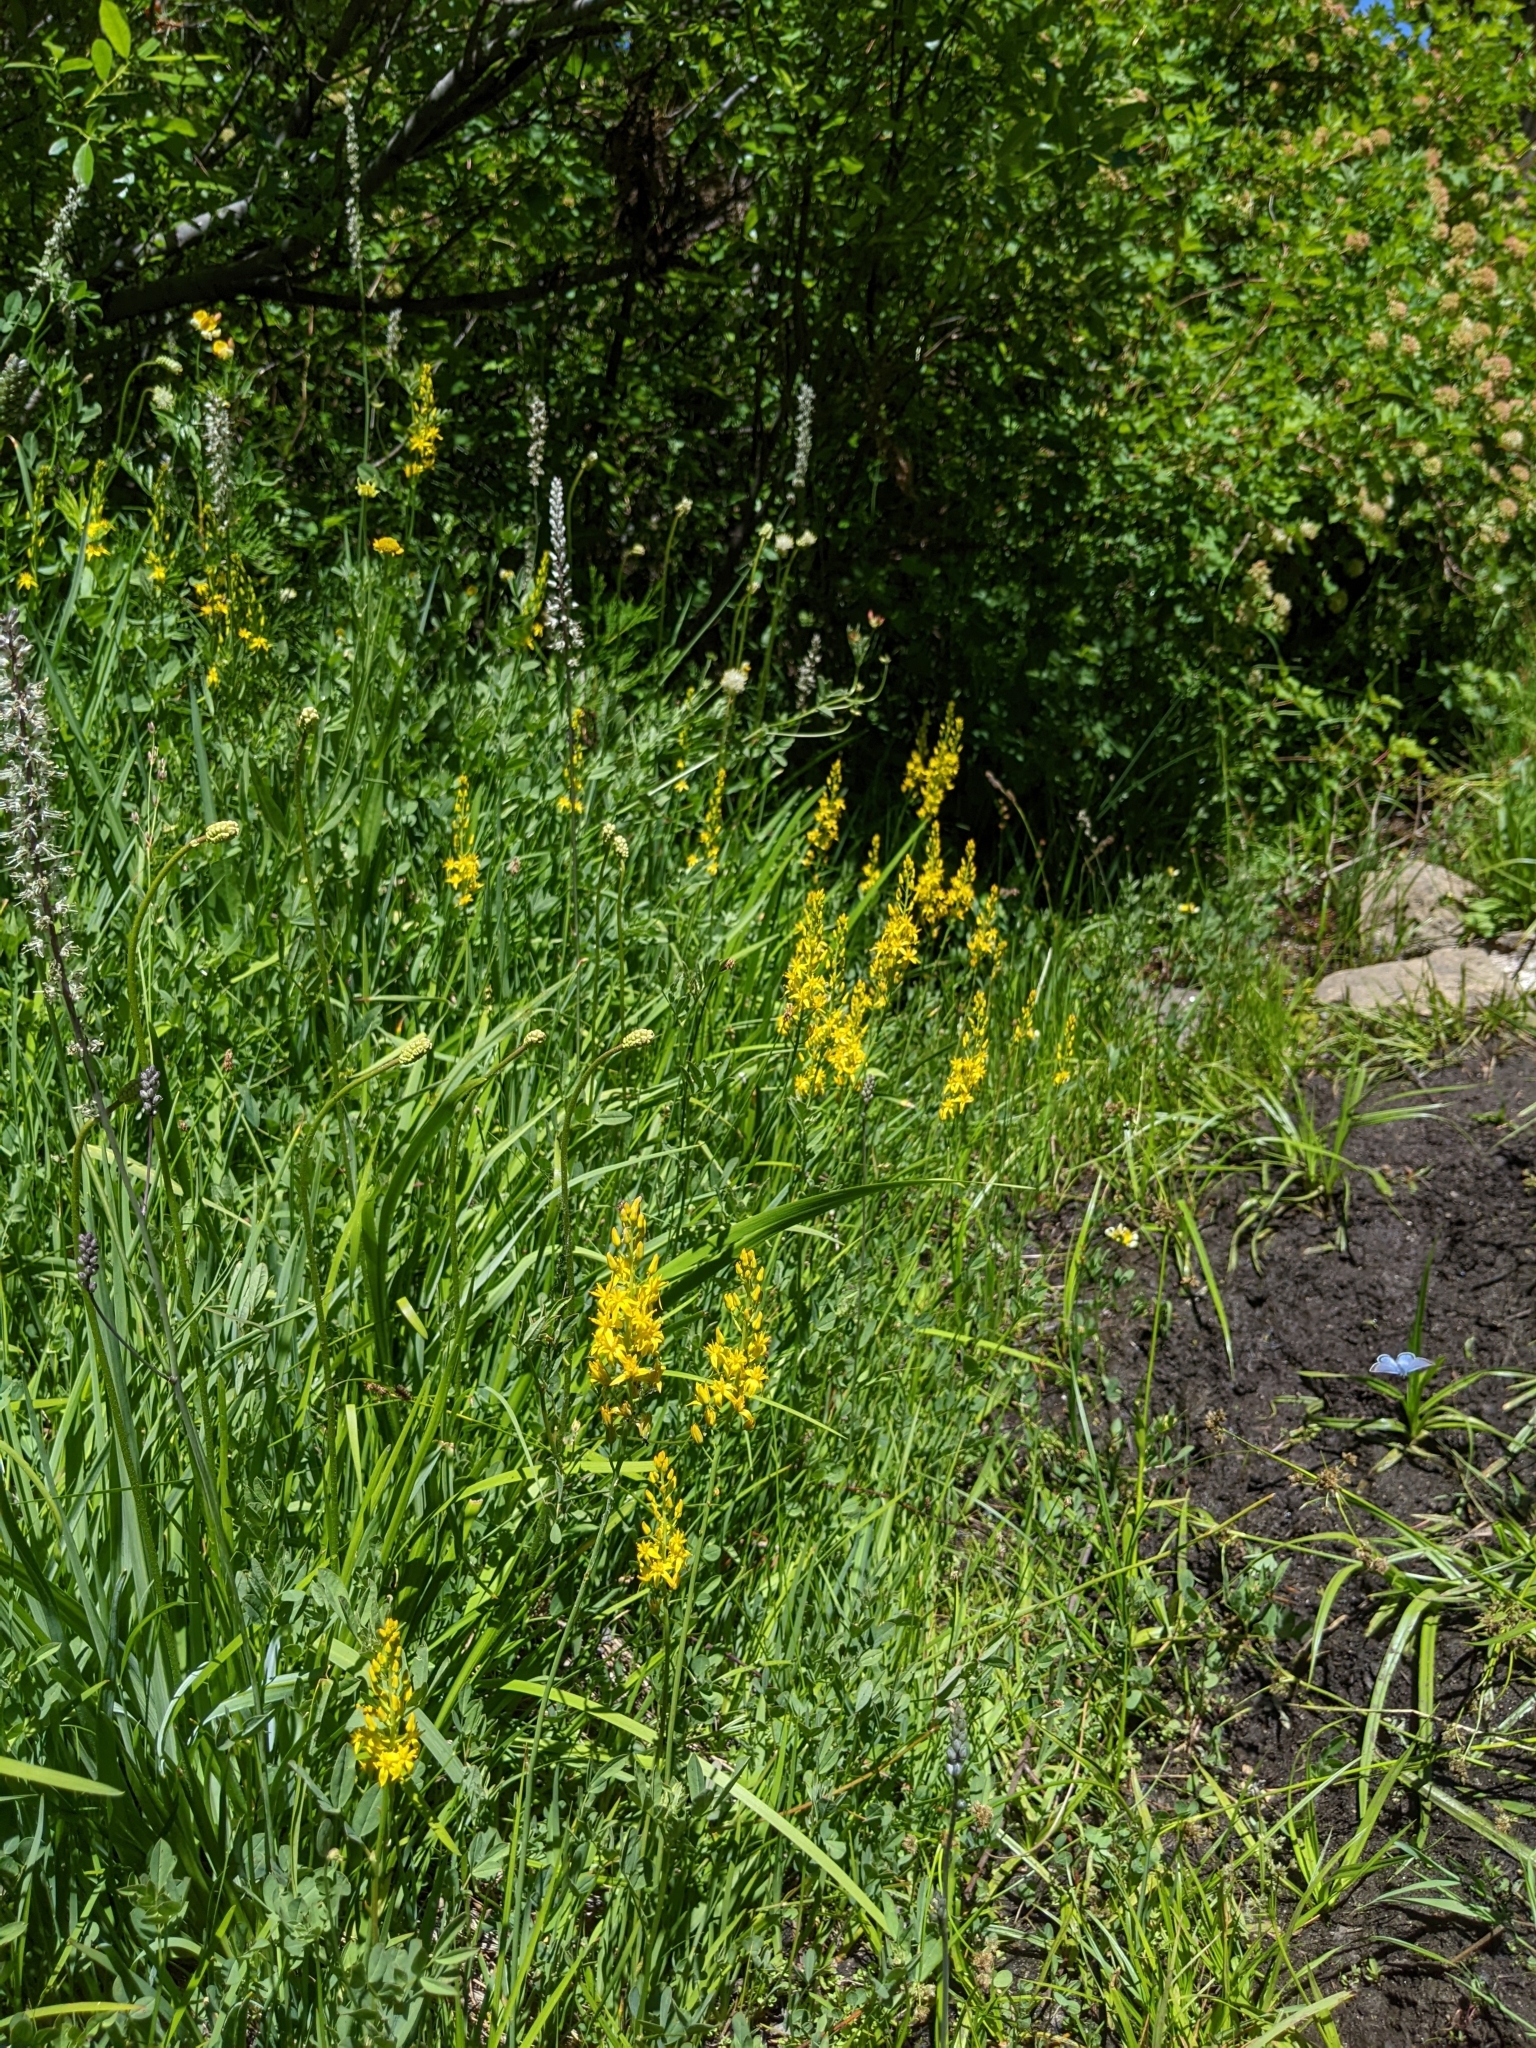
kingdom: Plantae
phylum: Tracheophyta
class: Liliopsida
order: Dioscoreales
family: Nartheciaceae
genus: Narthecium
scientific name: Narthecium californicum
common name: California bog-asphodel
